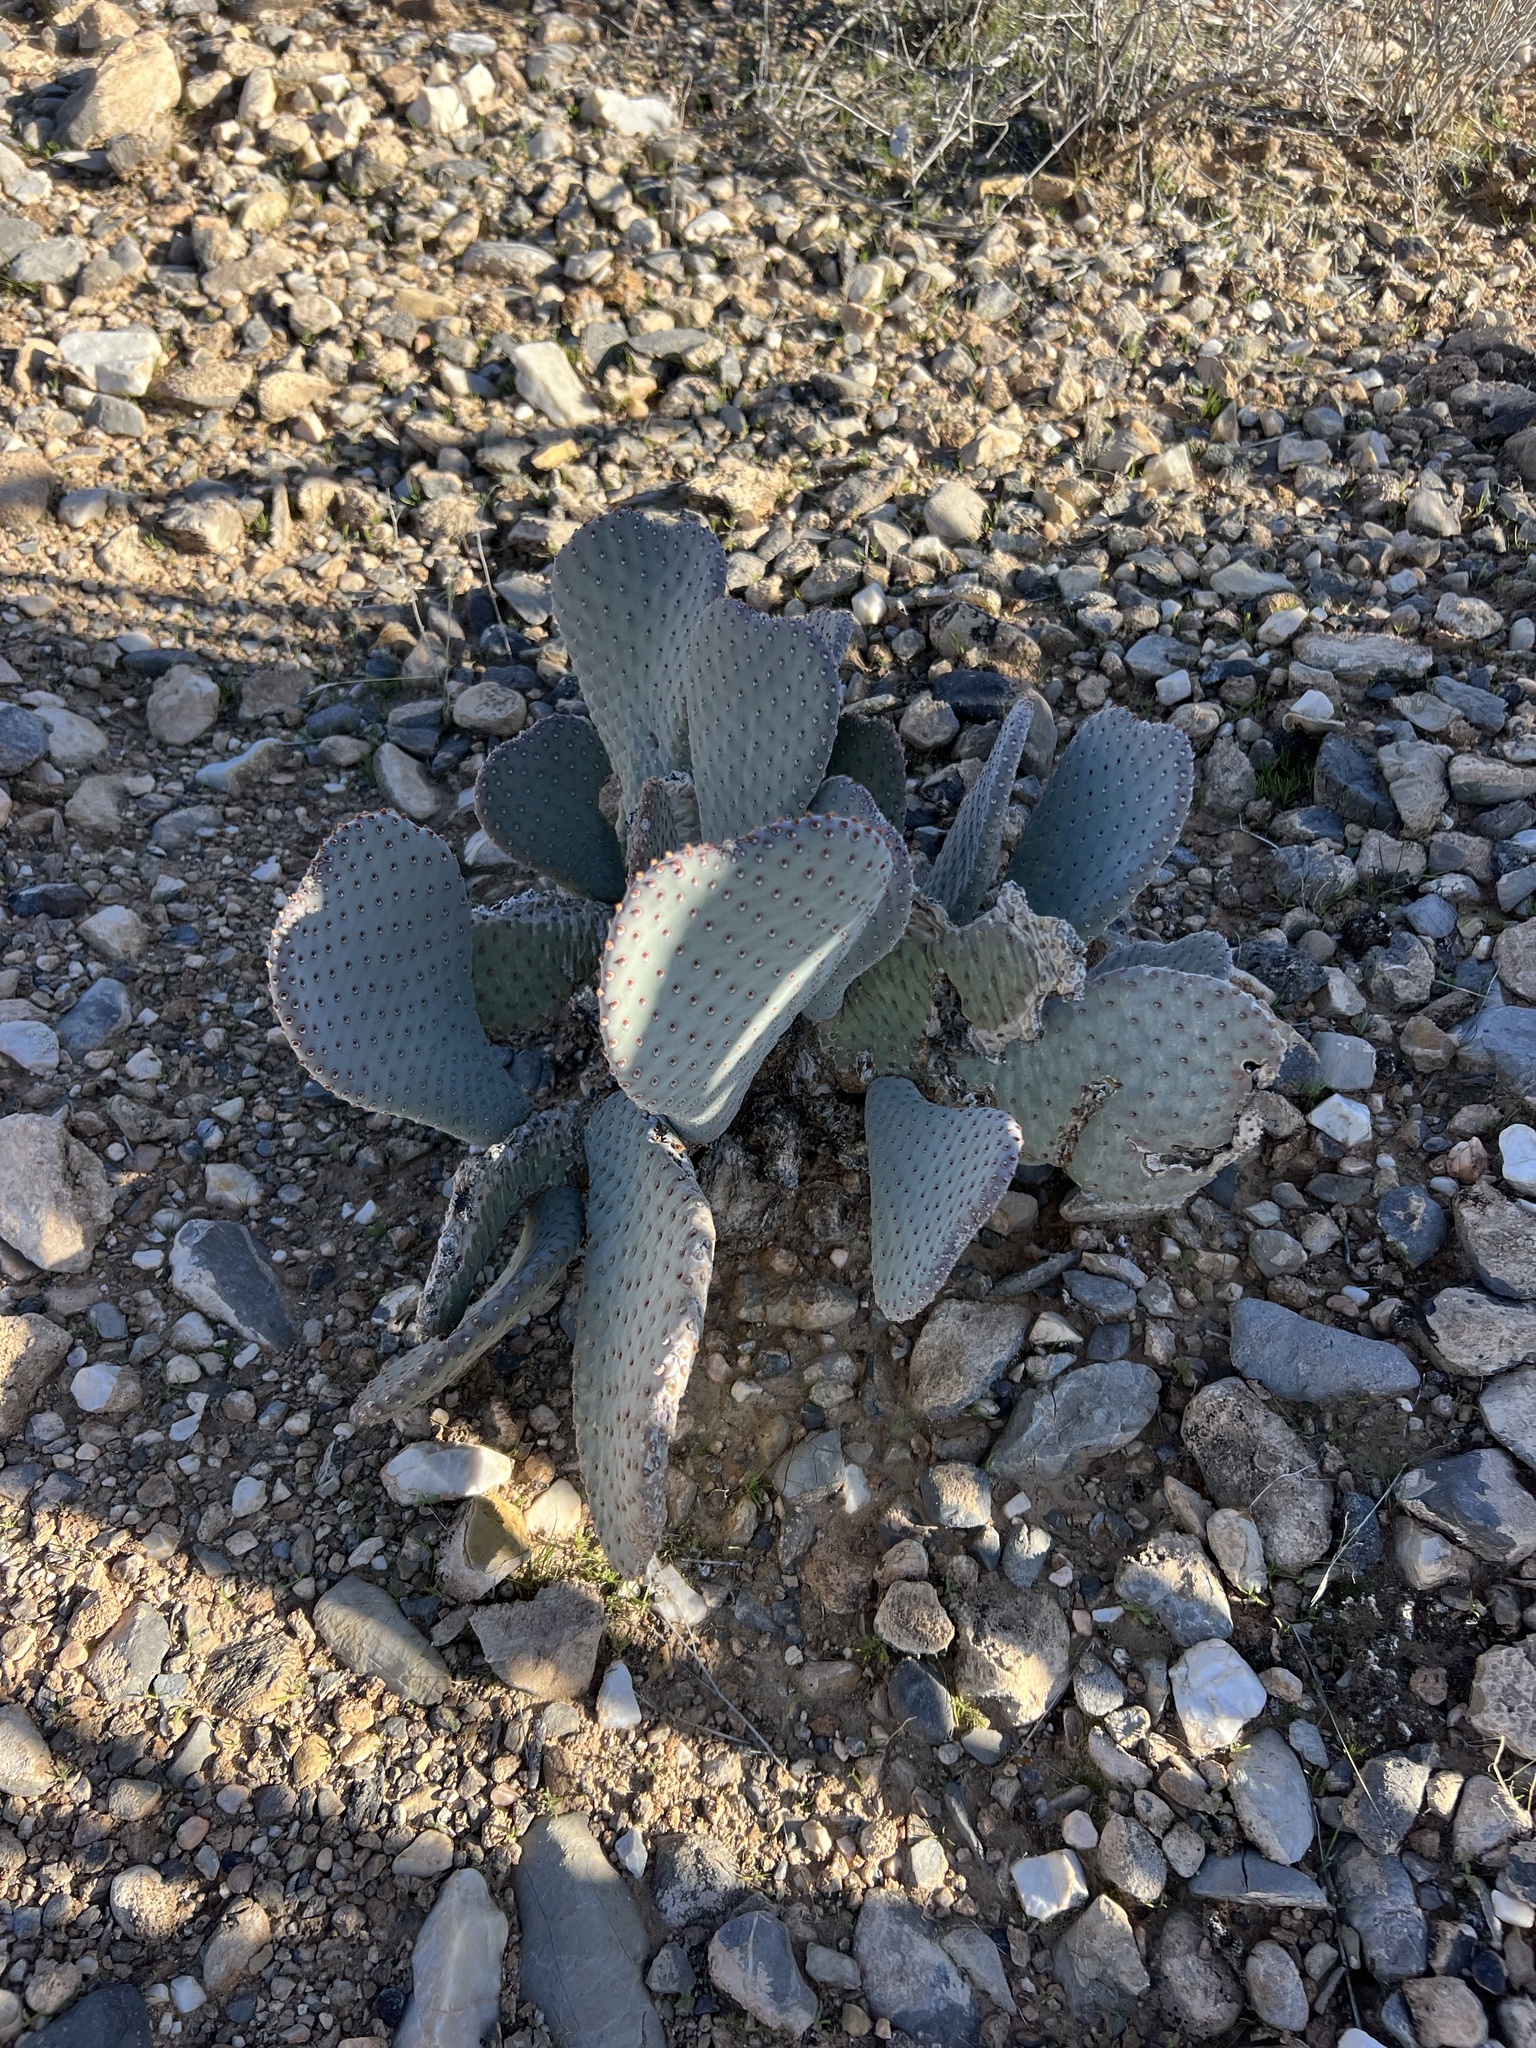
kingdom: Plantae
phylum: Tracheophyta
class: Magnoliopsida
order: Caryophyllales
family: Cactaceae
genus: Opuntia
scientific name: Opuntia basilaris
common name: Beavertail prickly-pear
